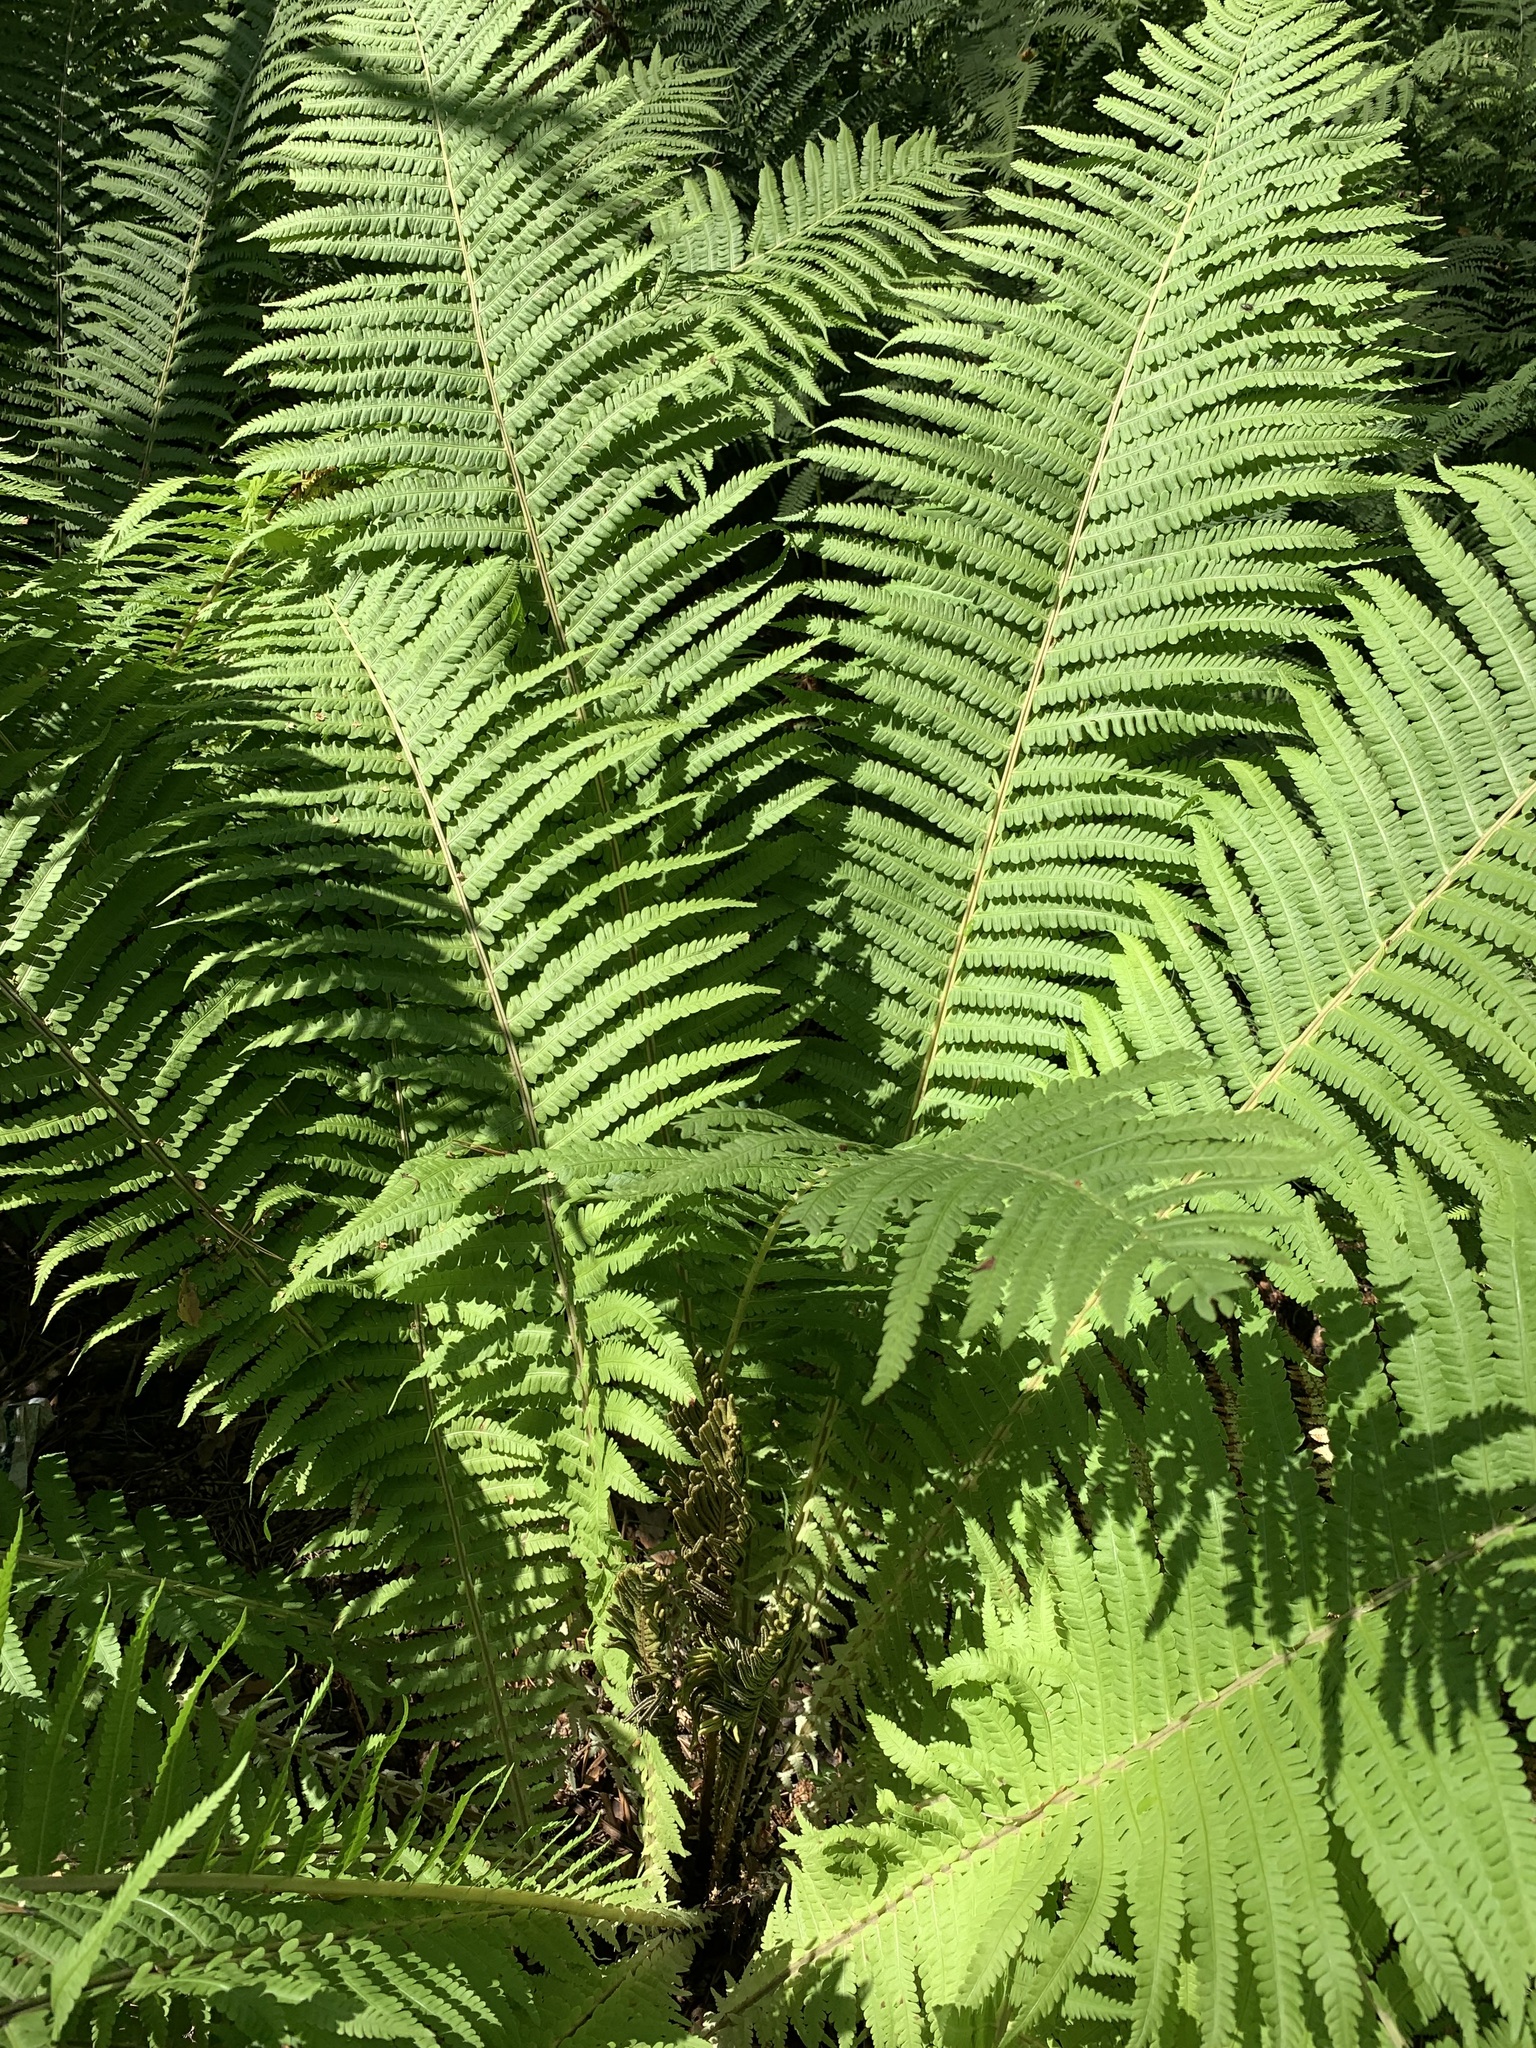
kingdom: Plantae
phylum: Tracheophyta
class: Polypodiopsida
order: Polypodiales
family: Onocleaceae
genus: Matteuccia
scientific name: Matteuccia struthiopteris
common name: Ostrich fern
